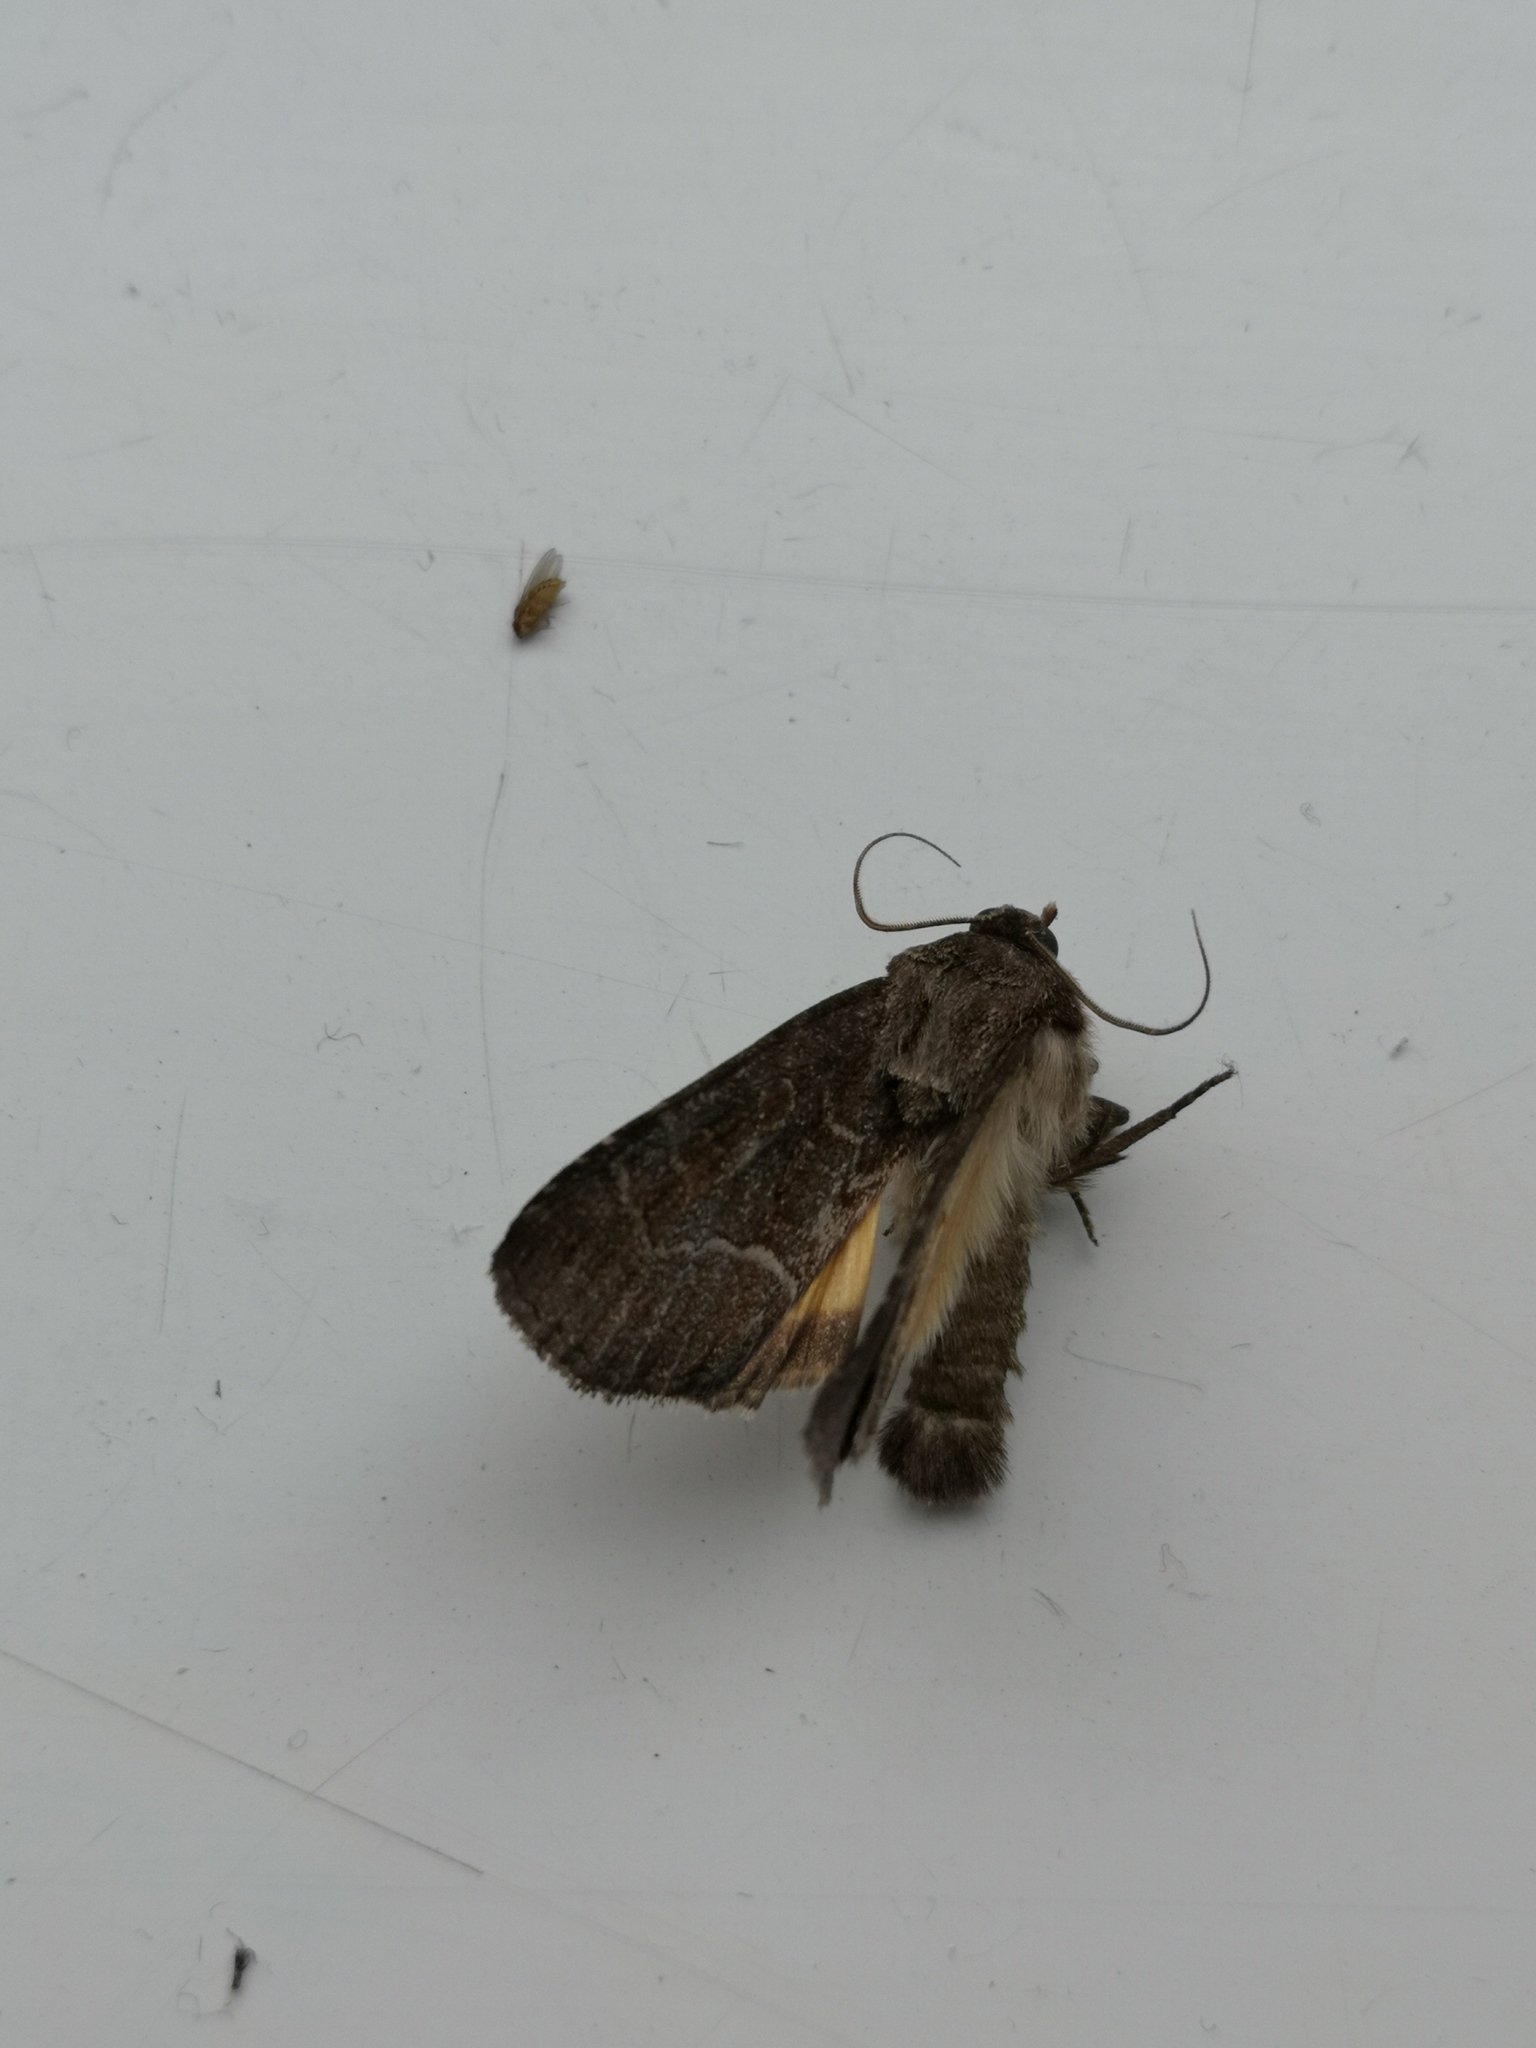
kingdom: Animalia
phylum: Arthropoda
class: Insecta
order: Lepidoptera
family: Noctuidae
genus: Thalpophila
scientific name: Thalpophila matura
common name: Straw underwing
